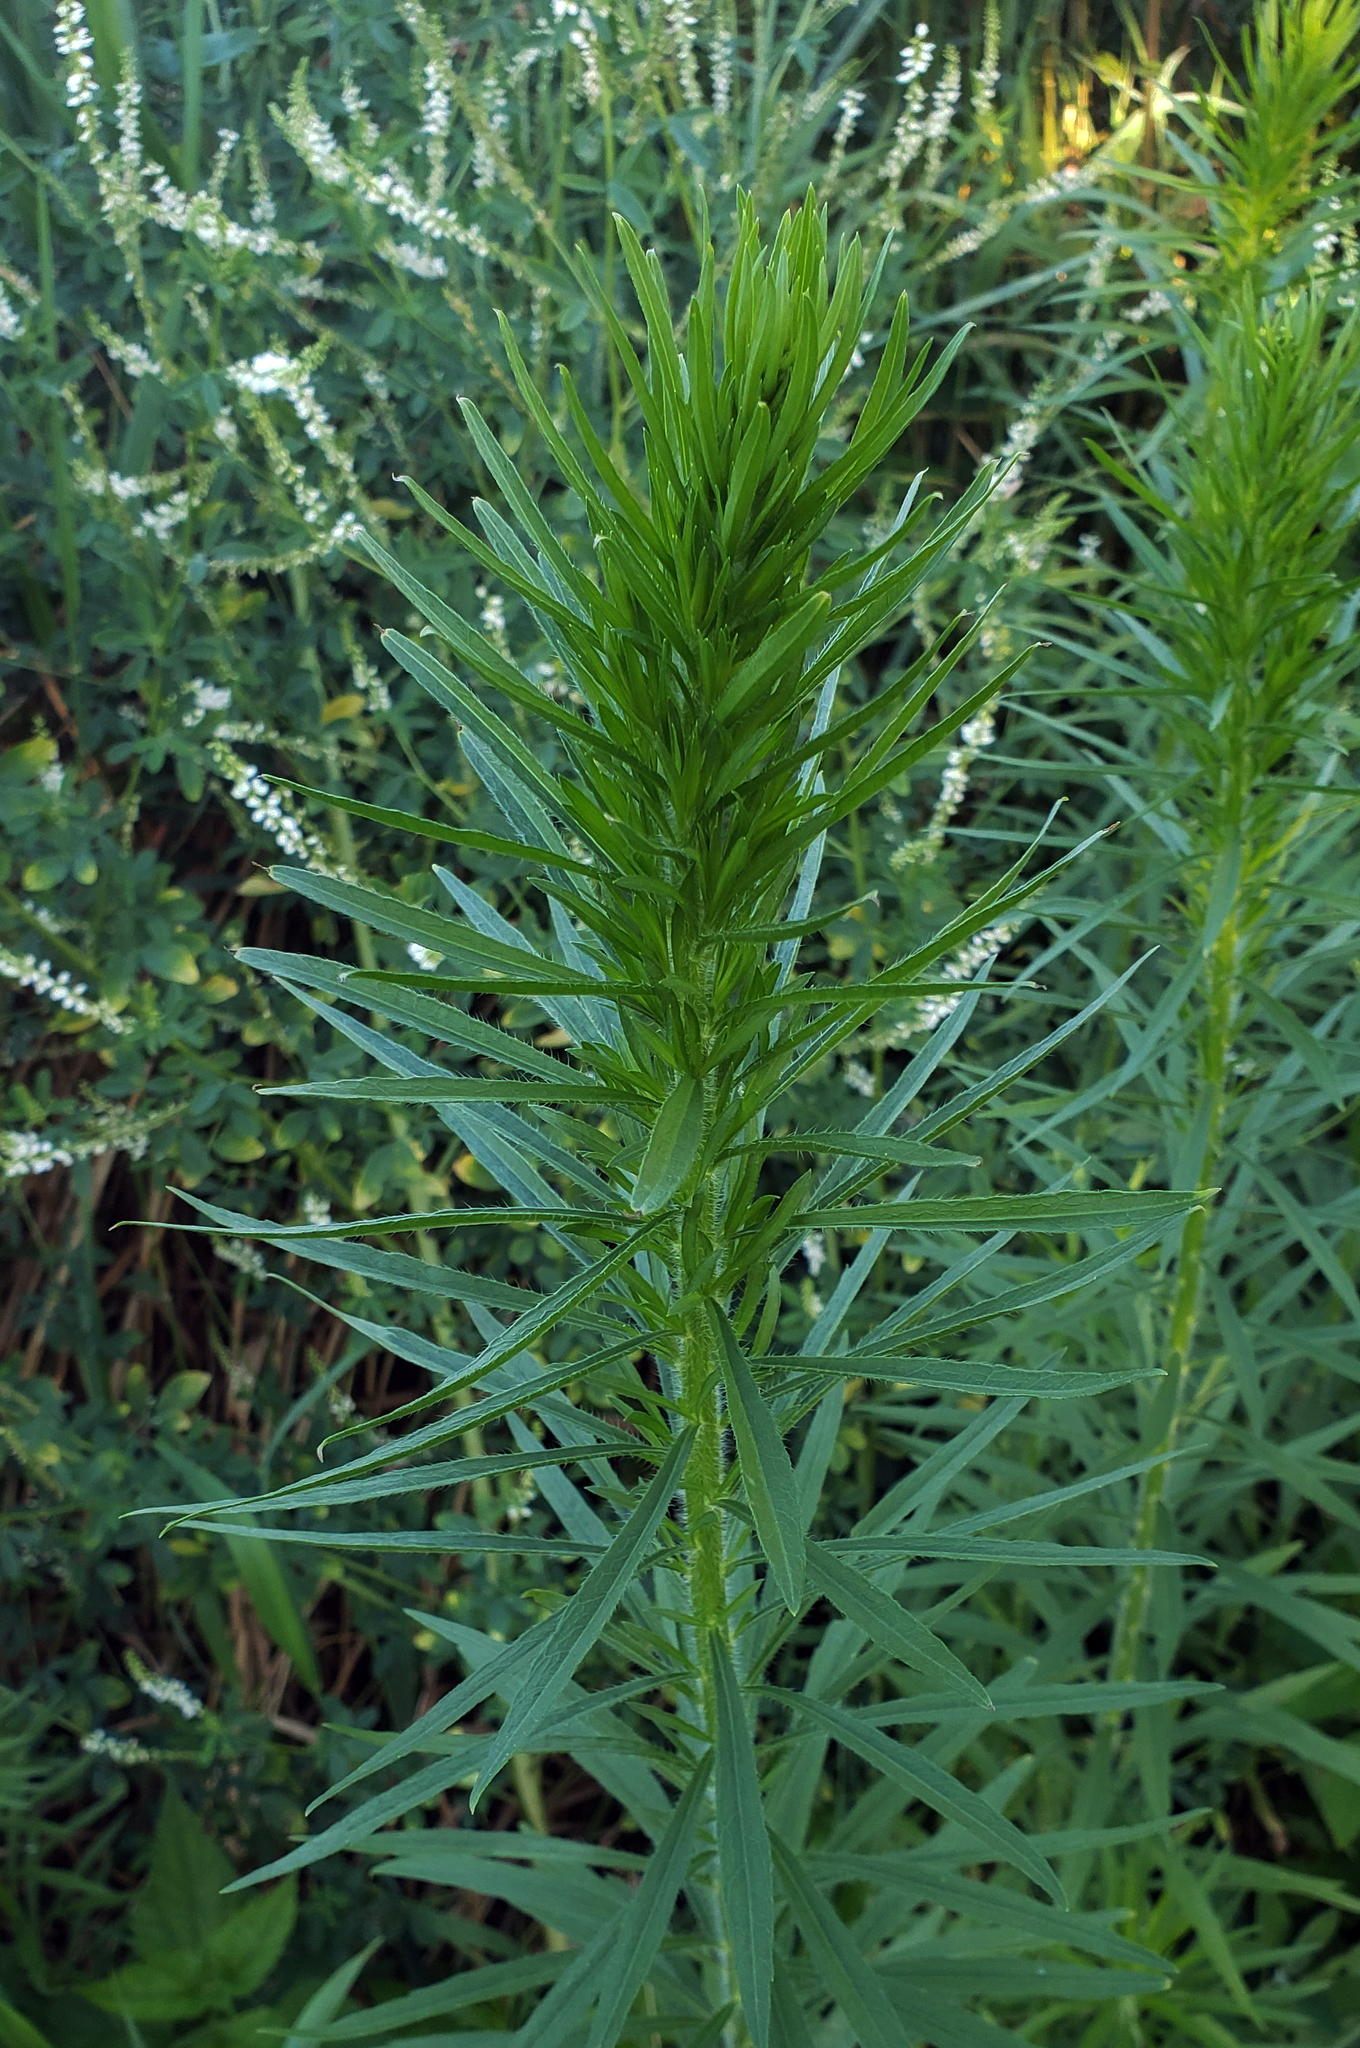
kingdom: Plantae
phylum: Tracheophyta
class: Magnoliopsida
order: Asterales
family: Asteraceae
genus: Erigeron
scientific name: Erigeron canadensis
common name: Canadian fleabane
